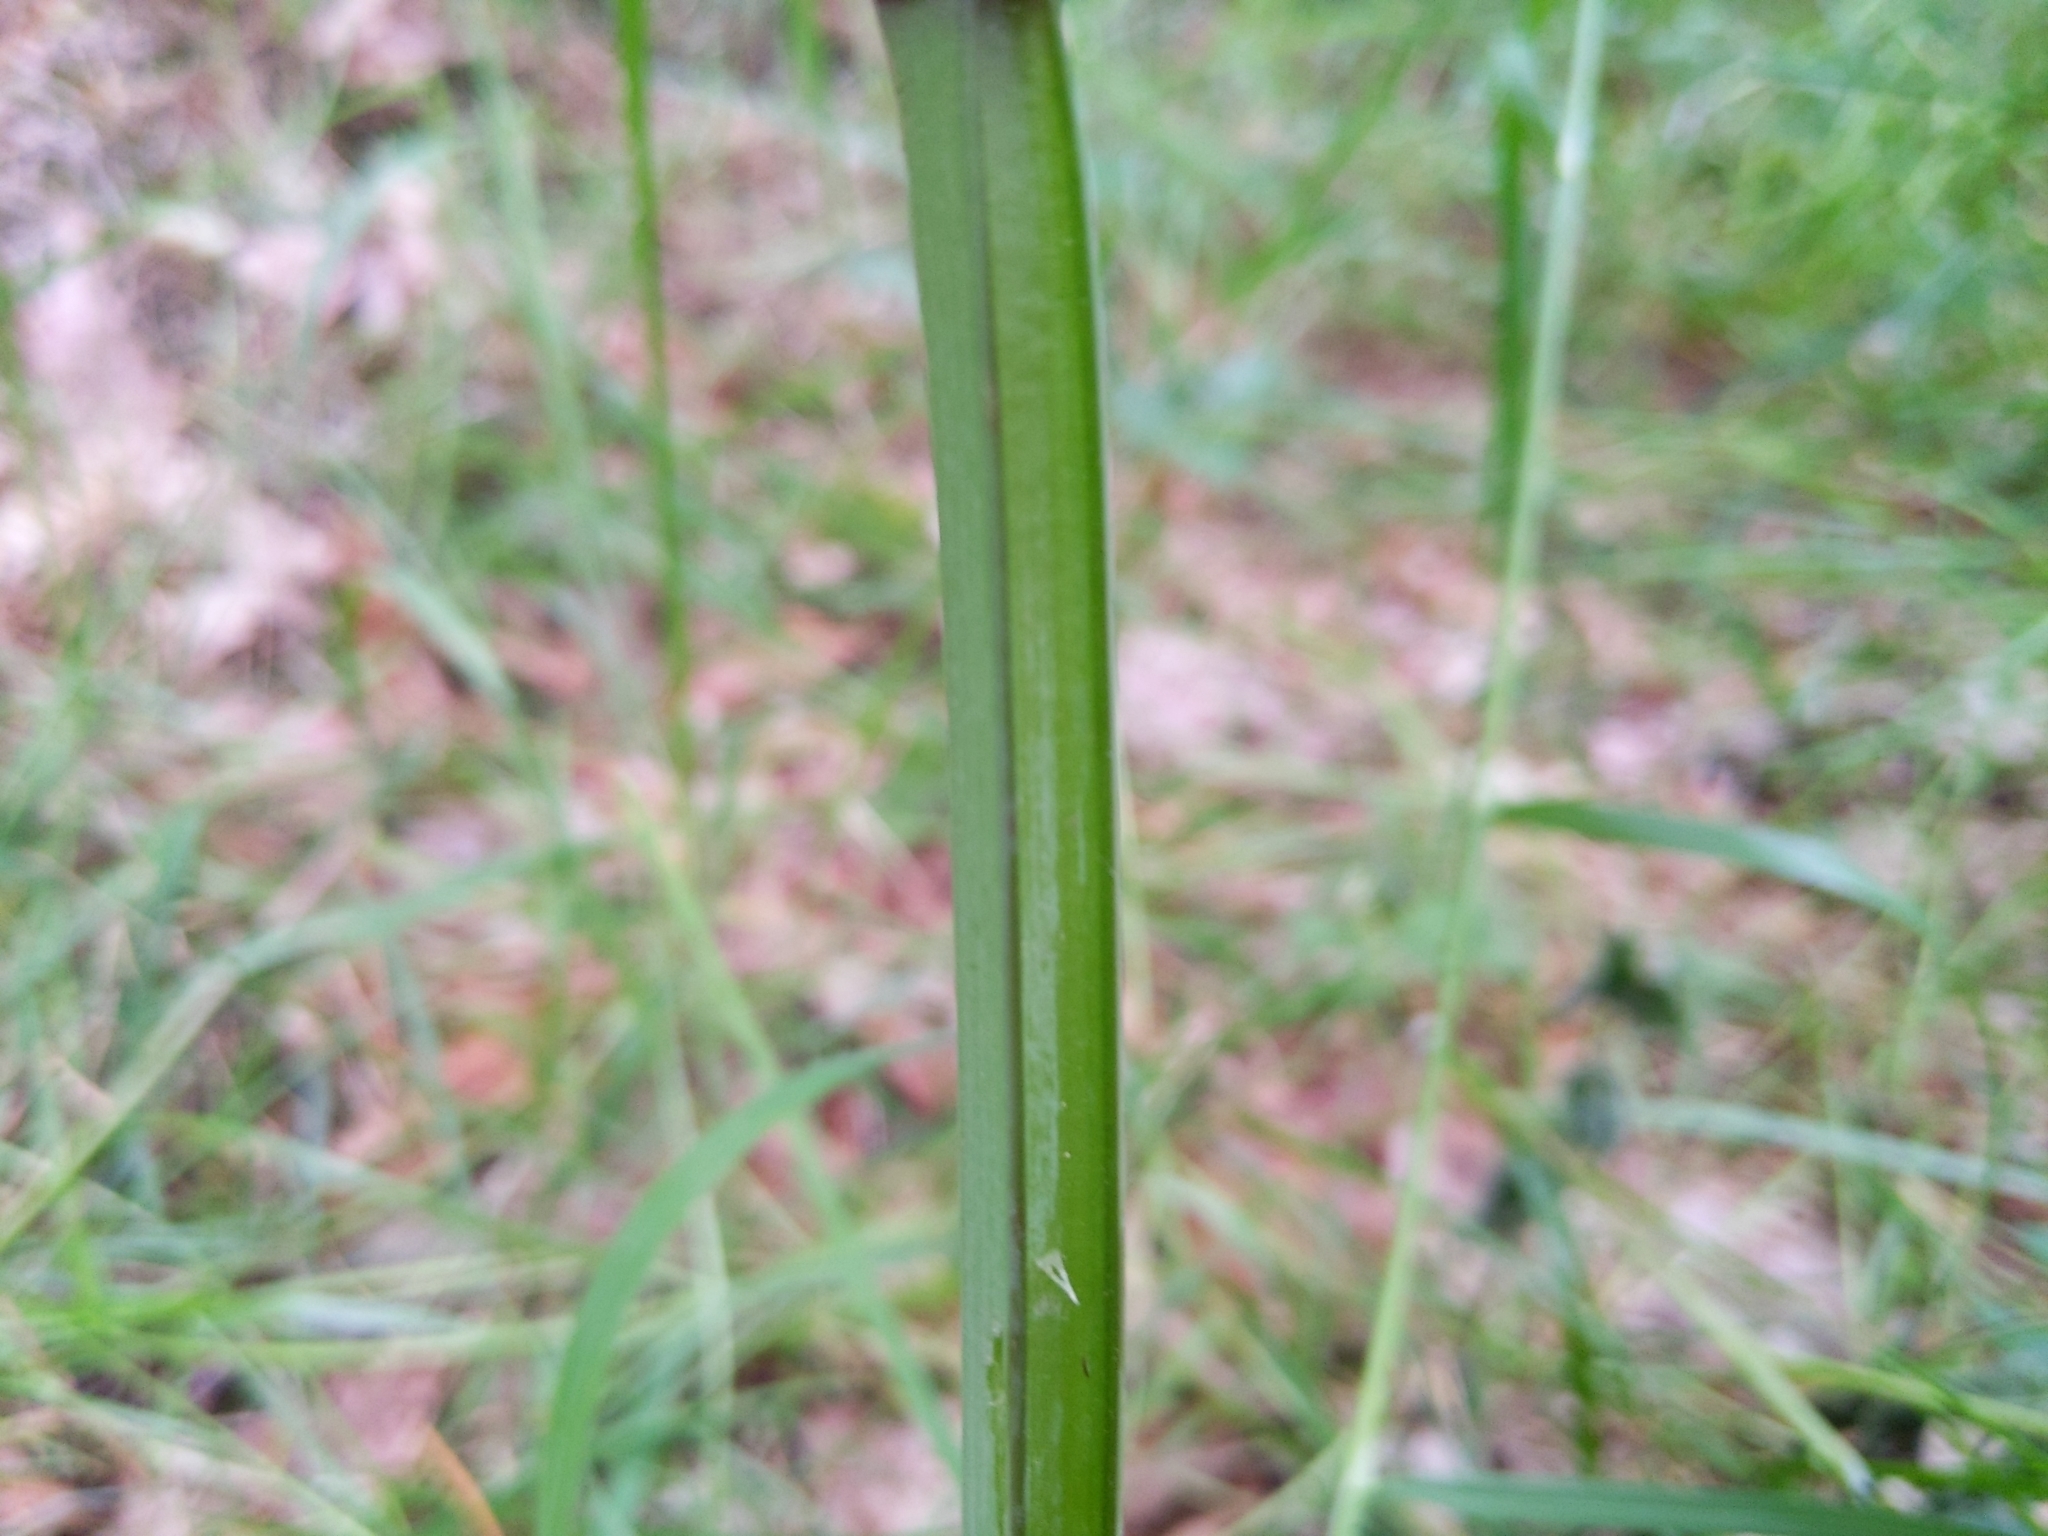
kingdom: Plantae
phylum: Tracheophyta
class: Magnoliopsida
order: Apiales
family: Apiaceae
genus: Angelica
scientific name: Angelica sylvestris
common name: Wild angelica
